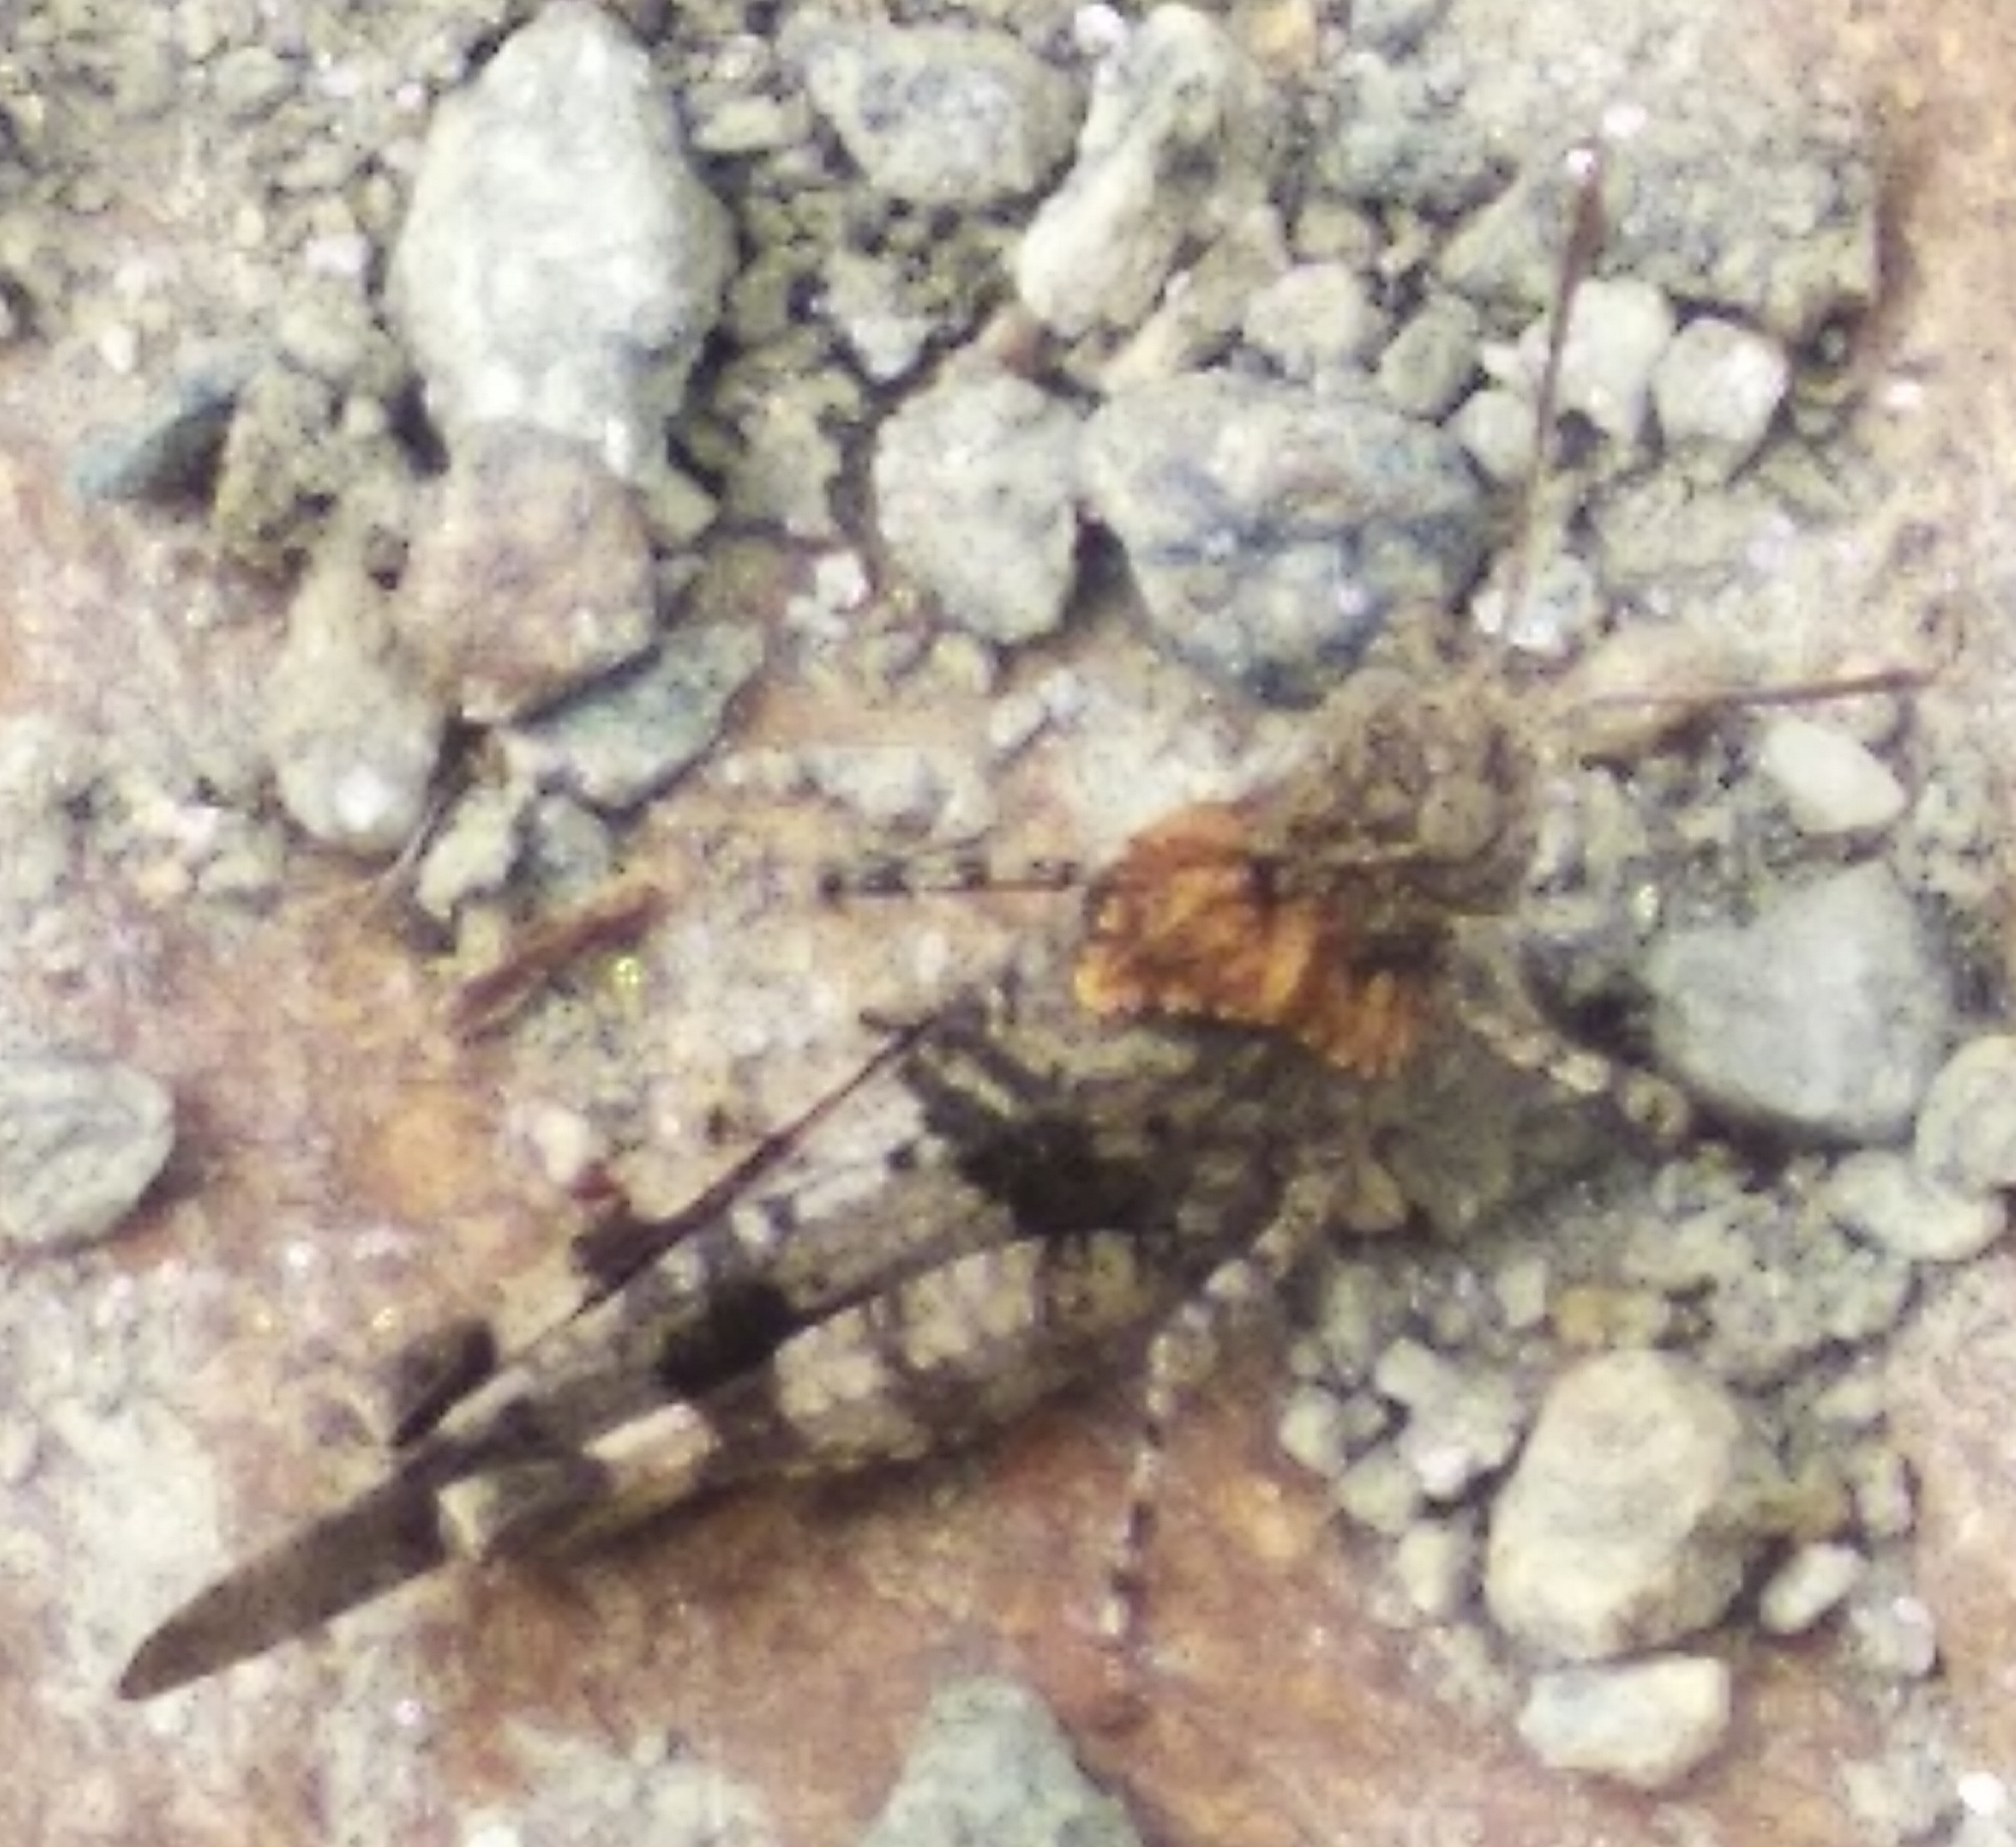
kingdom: Animalia
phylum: Arthropoda
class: Insecta
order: Orthoptera
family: Acrididae
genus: Oedipoda
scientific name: Oedipoda caerulescens
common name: Blue-winged grasshopper
